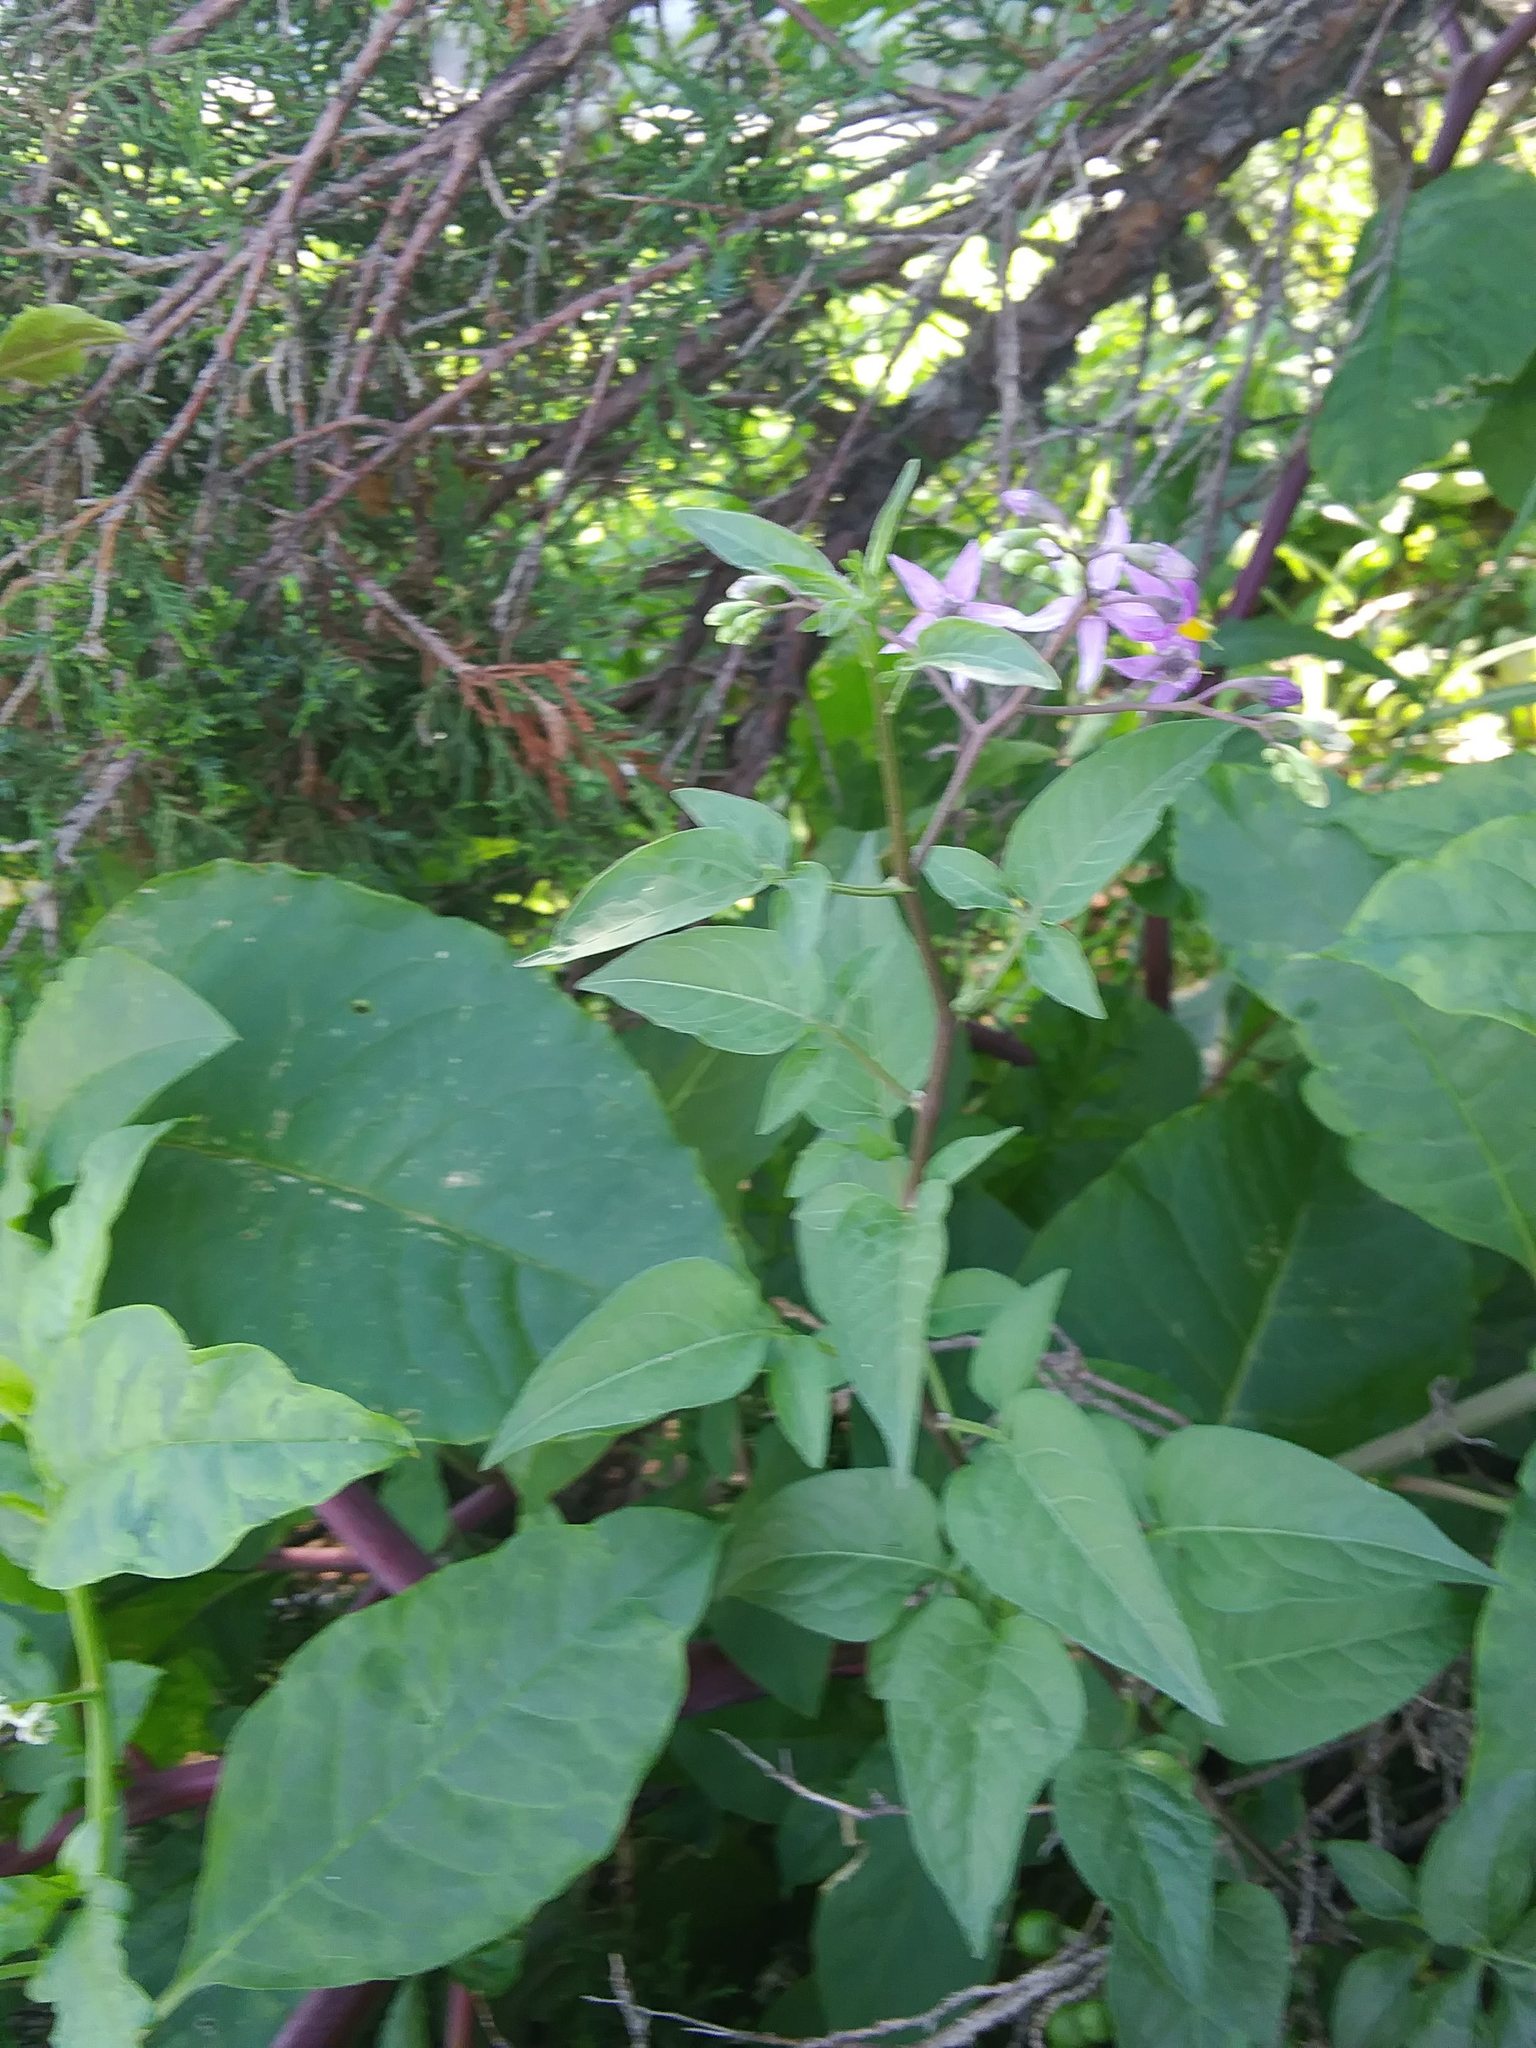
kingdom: Plantae
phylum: Tracheophyta
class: Magnoliopsida
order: Solanales
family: Solanaceae
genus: Solanum
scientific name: Solanum dulcamara
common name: Climbing nightshade
